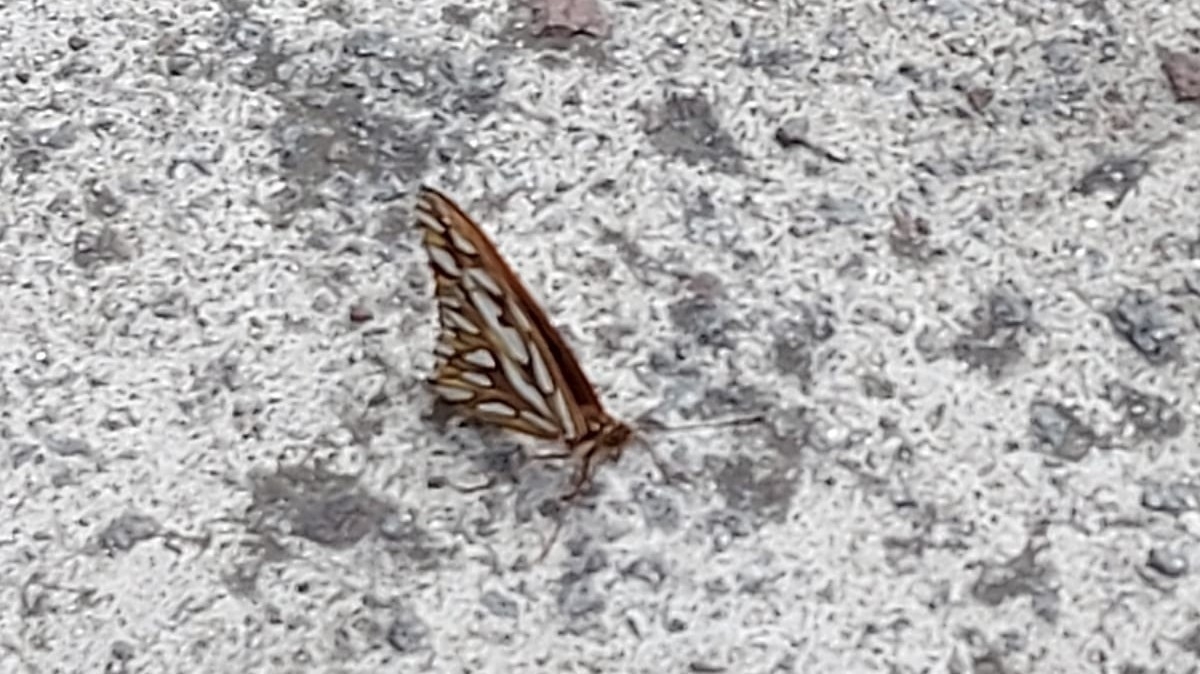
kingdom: Animalia
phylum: Arthropoda
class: Insecta
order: Lepidoptera
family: Nymphalidae
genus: Dione
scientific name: Dione vanillae
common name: Gulf fritillary
